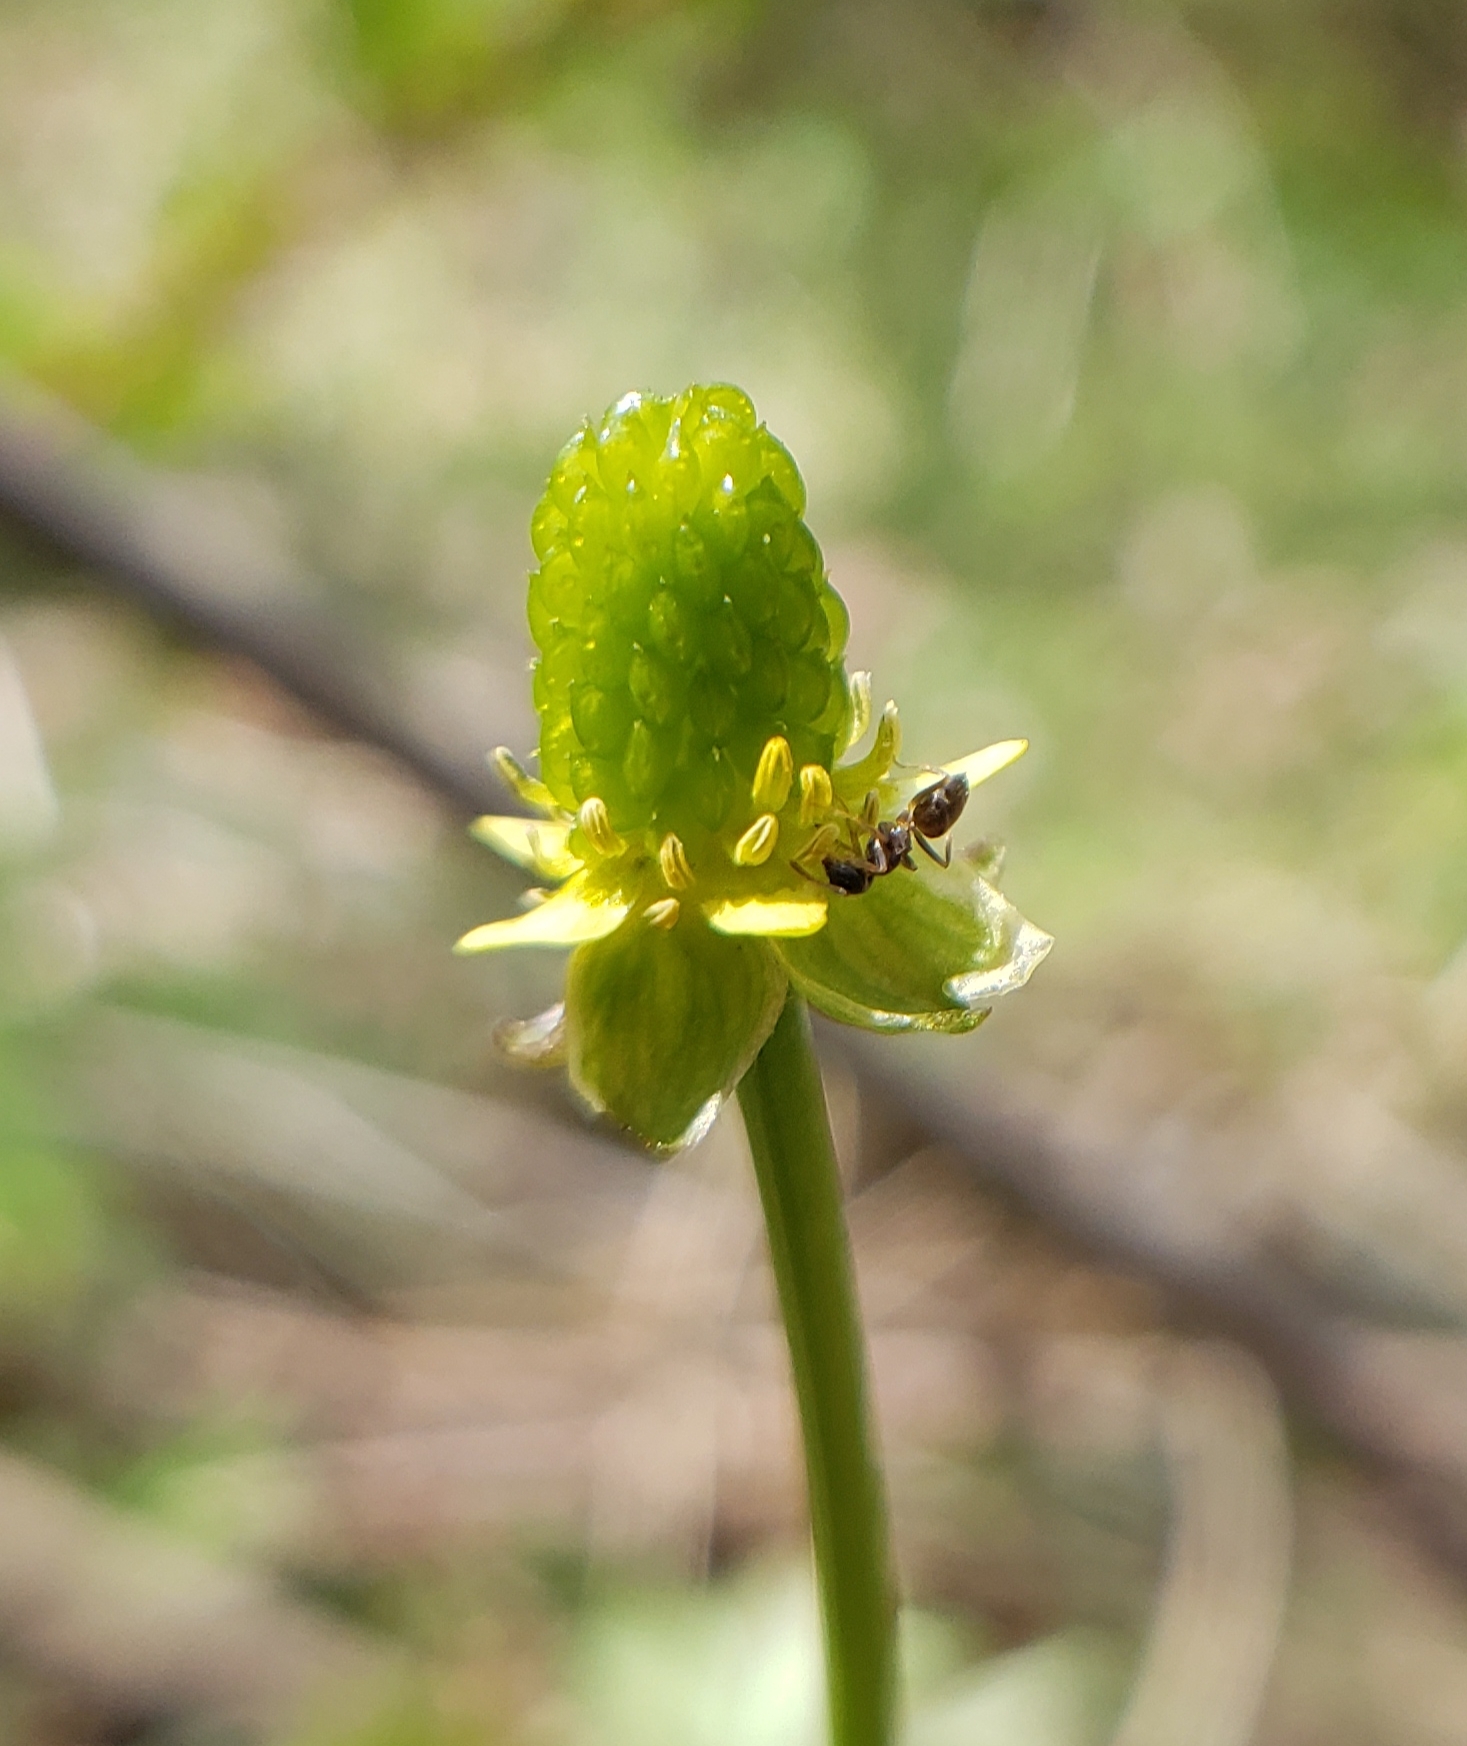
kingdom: Plantae
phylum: Tracheophyta
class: Magnoliopsida
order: Ranunculales
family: Ranunculaceae
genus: Ranunculus
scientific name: Ranunculus abortivus
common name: Early wood buttercup
